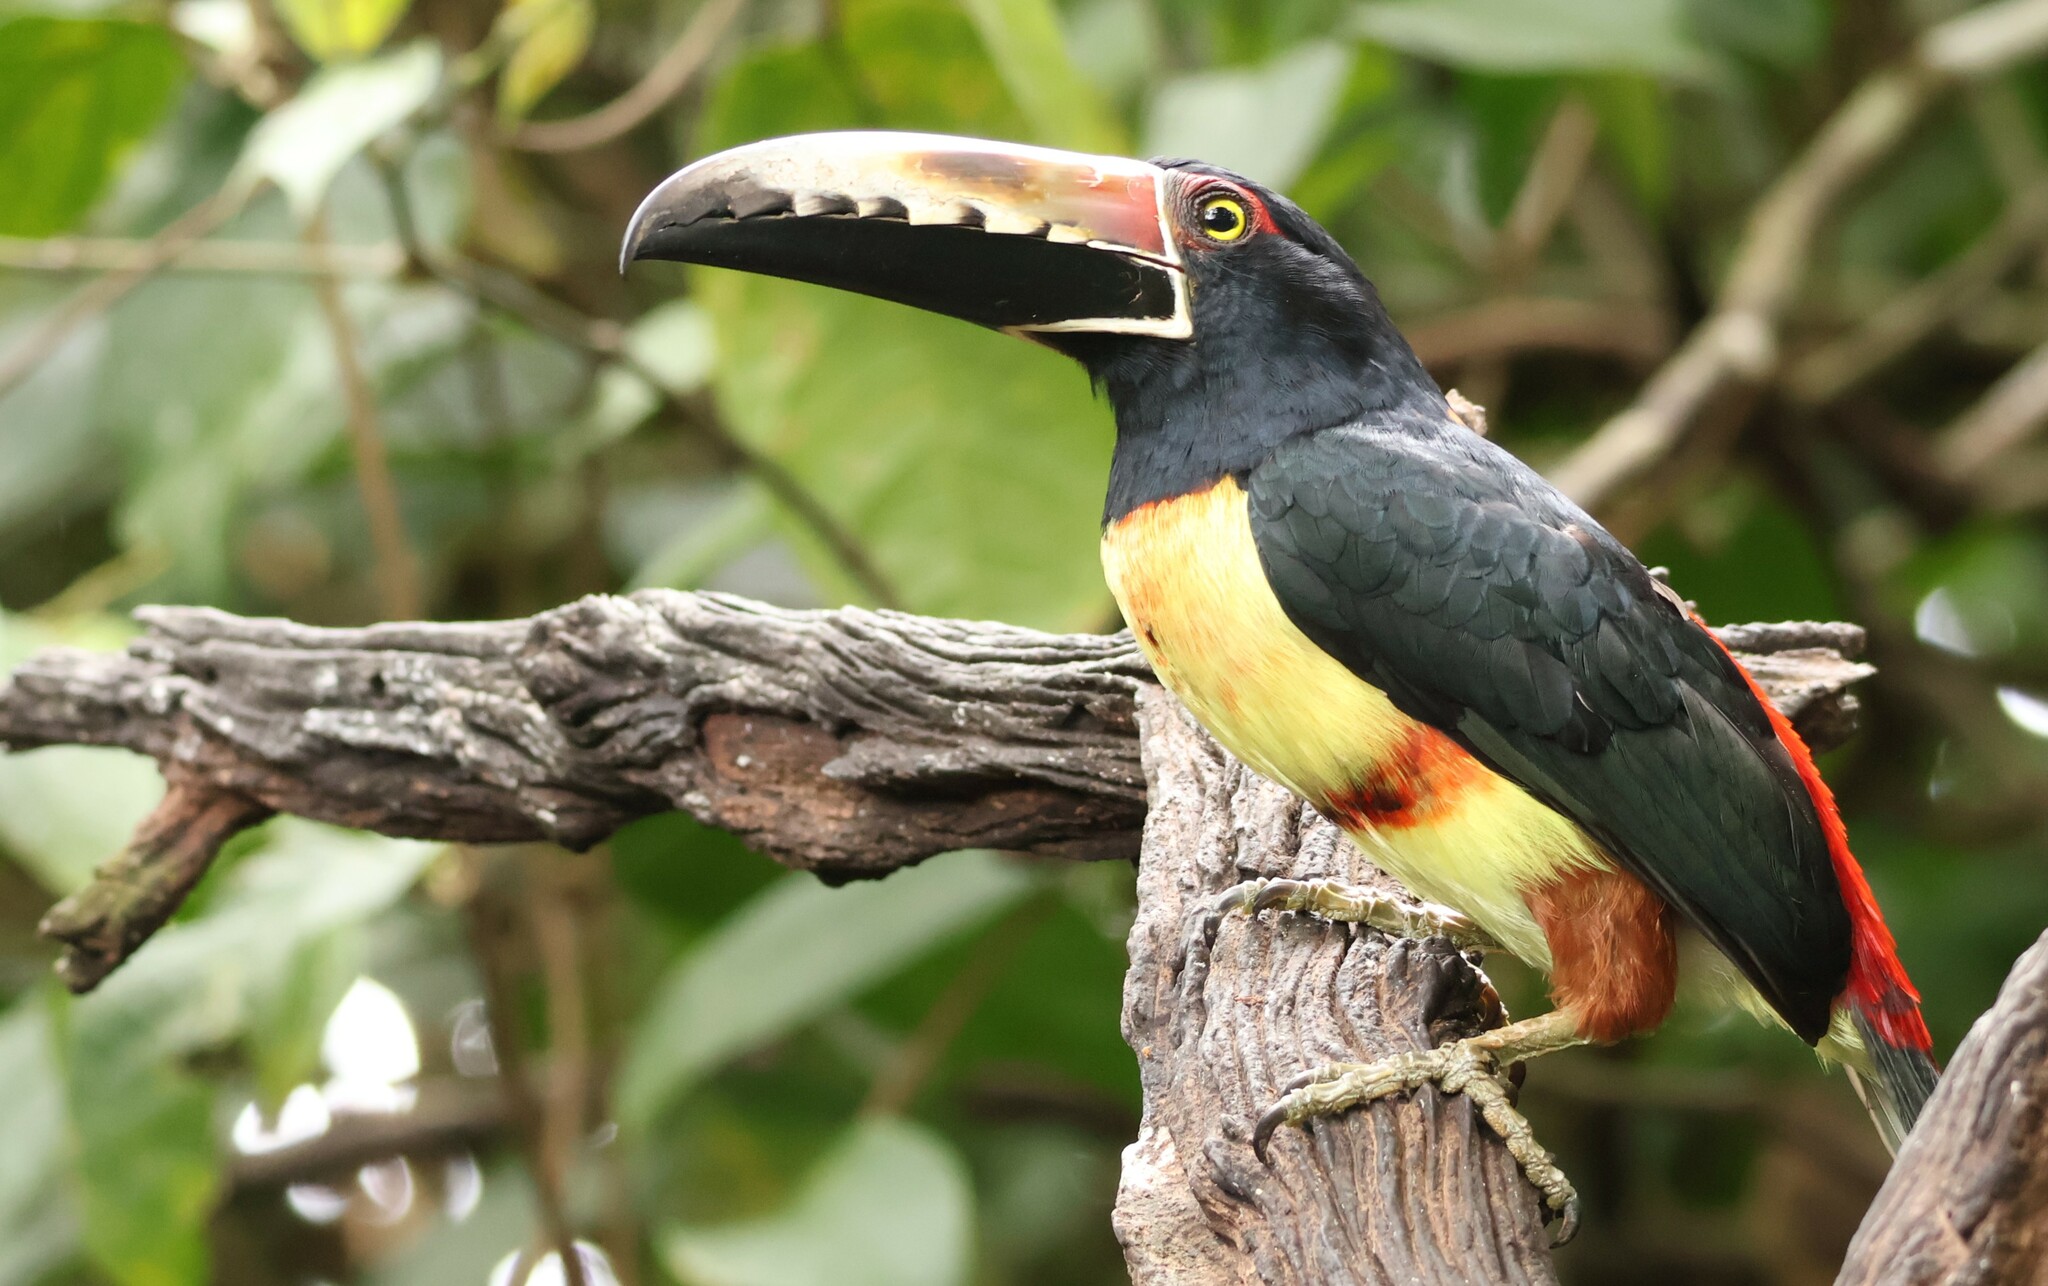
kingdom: Animalia
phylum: Chordata
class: Aves
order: Piciformes
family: Ramphastidae
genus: Pteroglossus
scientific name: Pteroglossus torquatus
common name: Collared aracari
